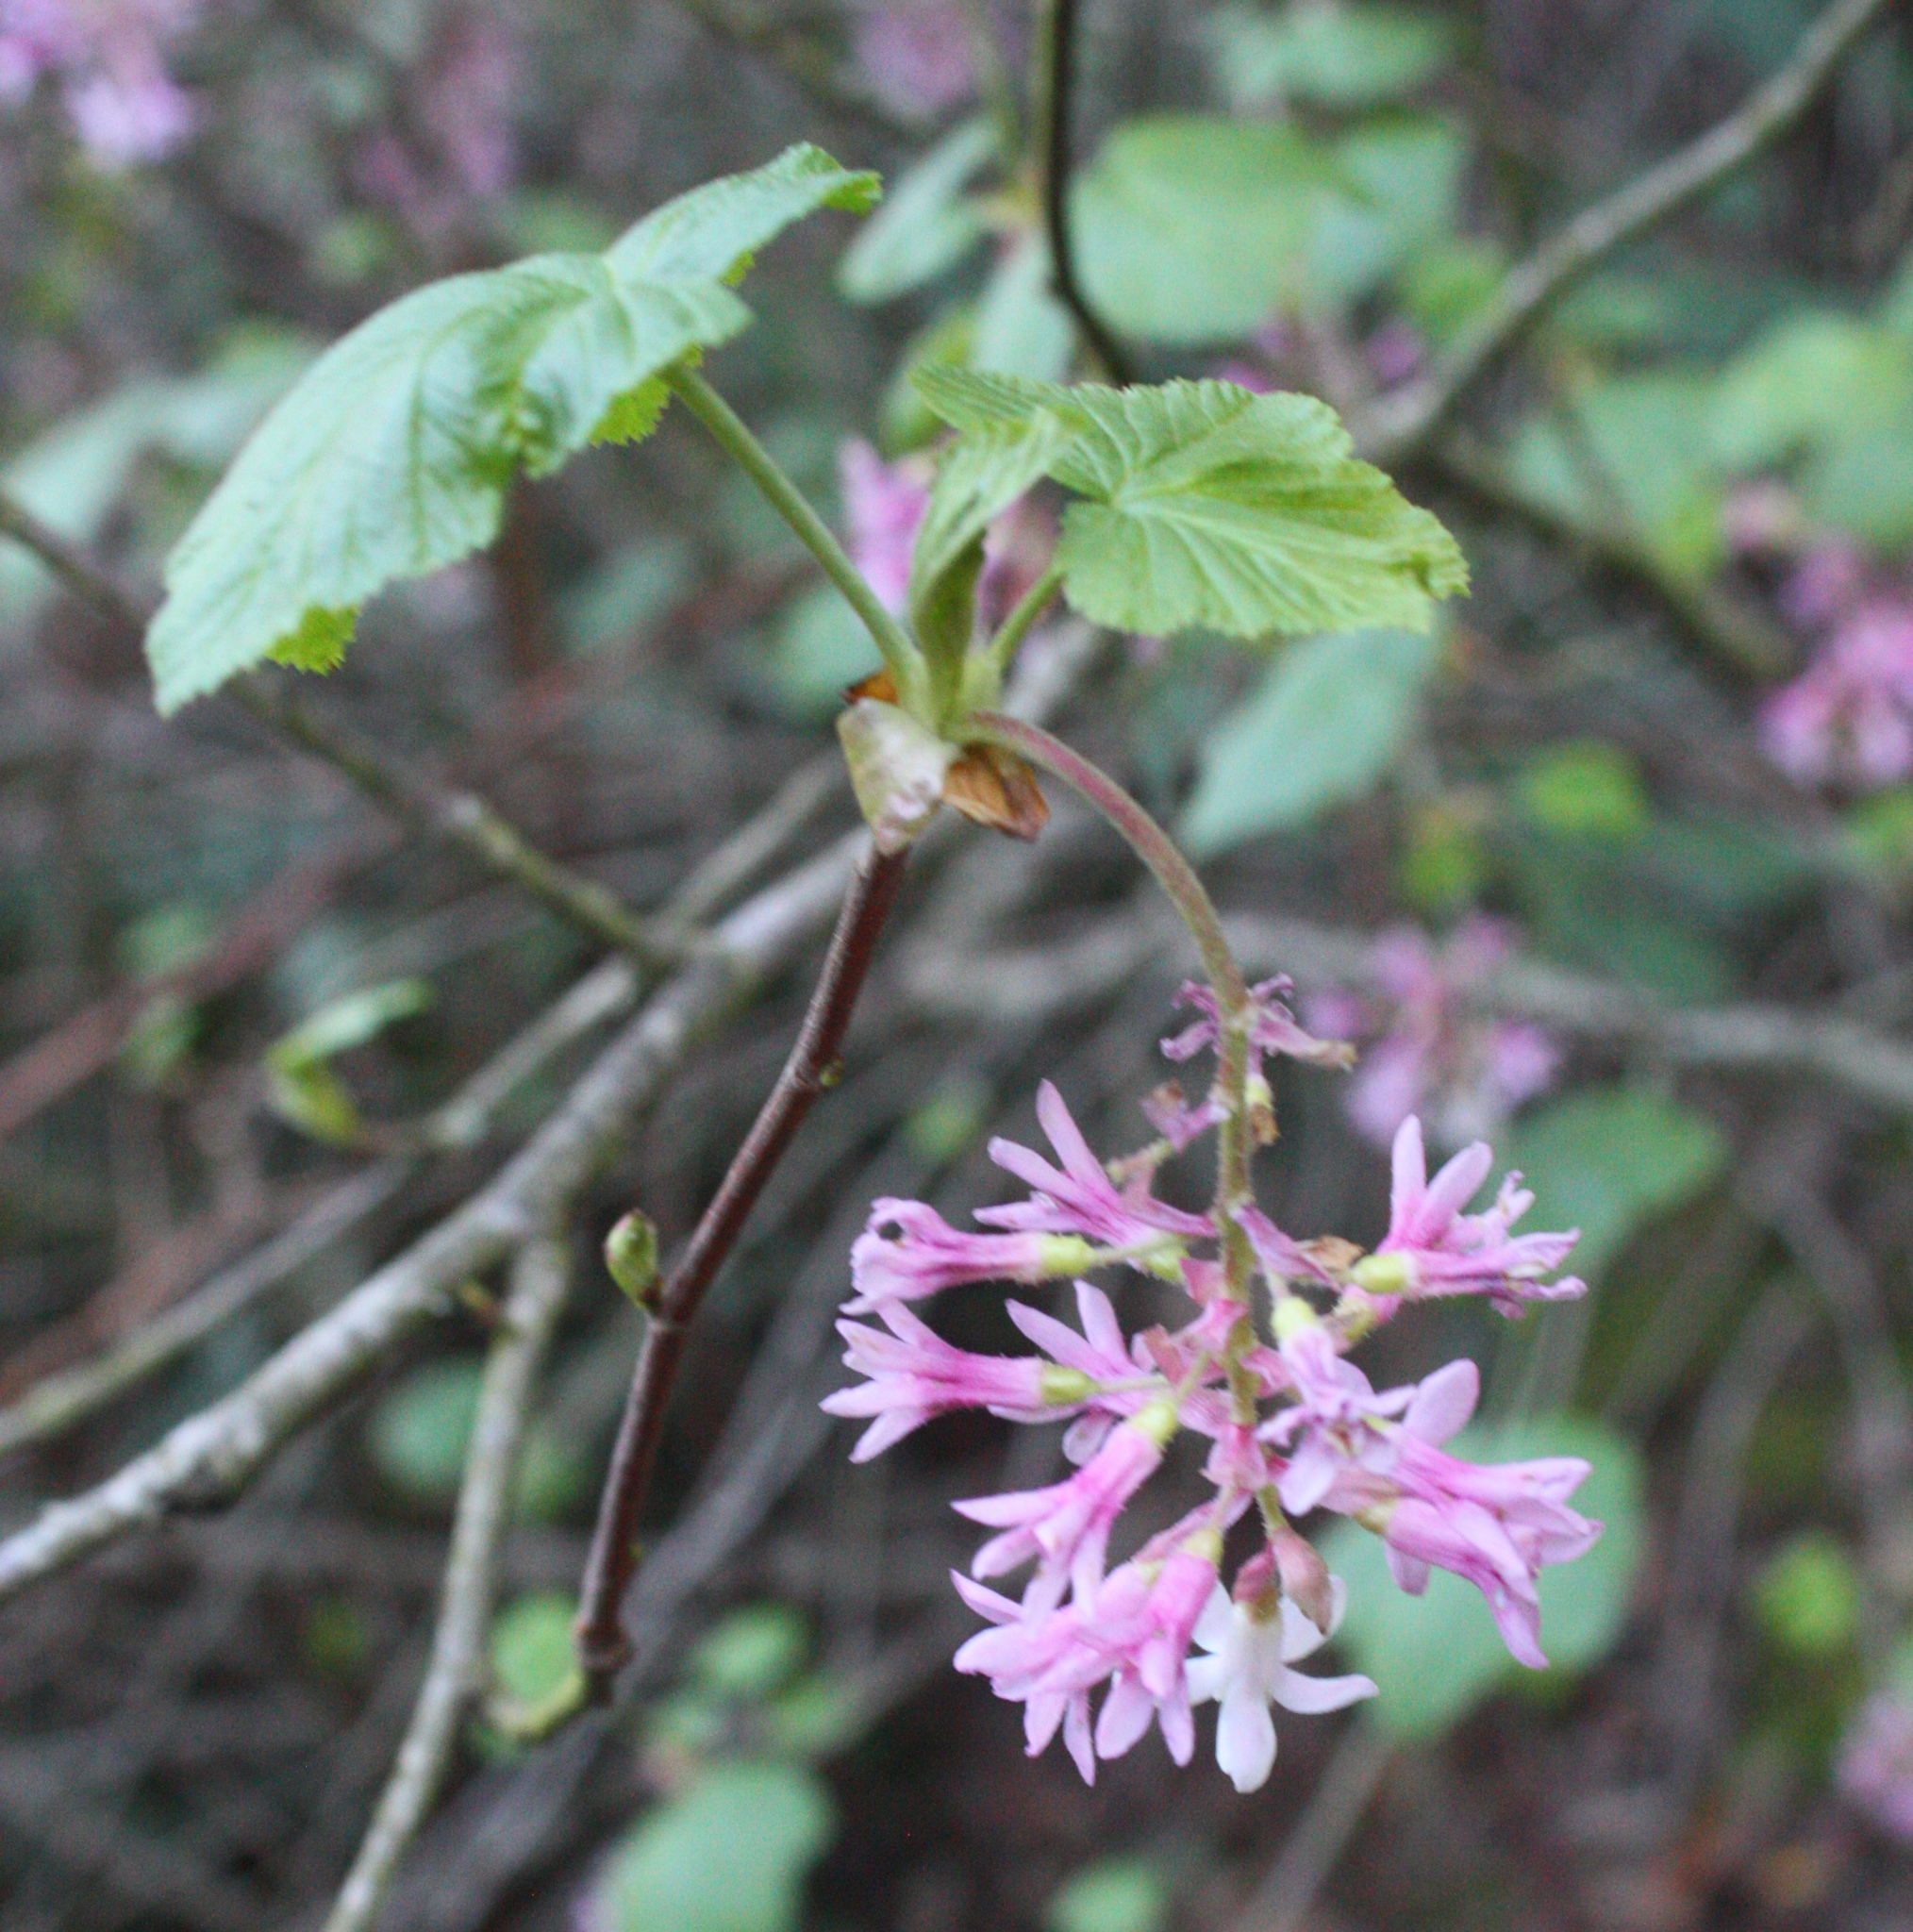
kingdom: Plantae
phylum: Tracheophyta
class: Magnoliopsida
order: Saxifragales
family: Grossulariaceae
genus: Ribes
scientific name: Ribes sanguineum
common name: Flowering currant
